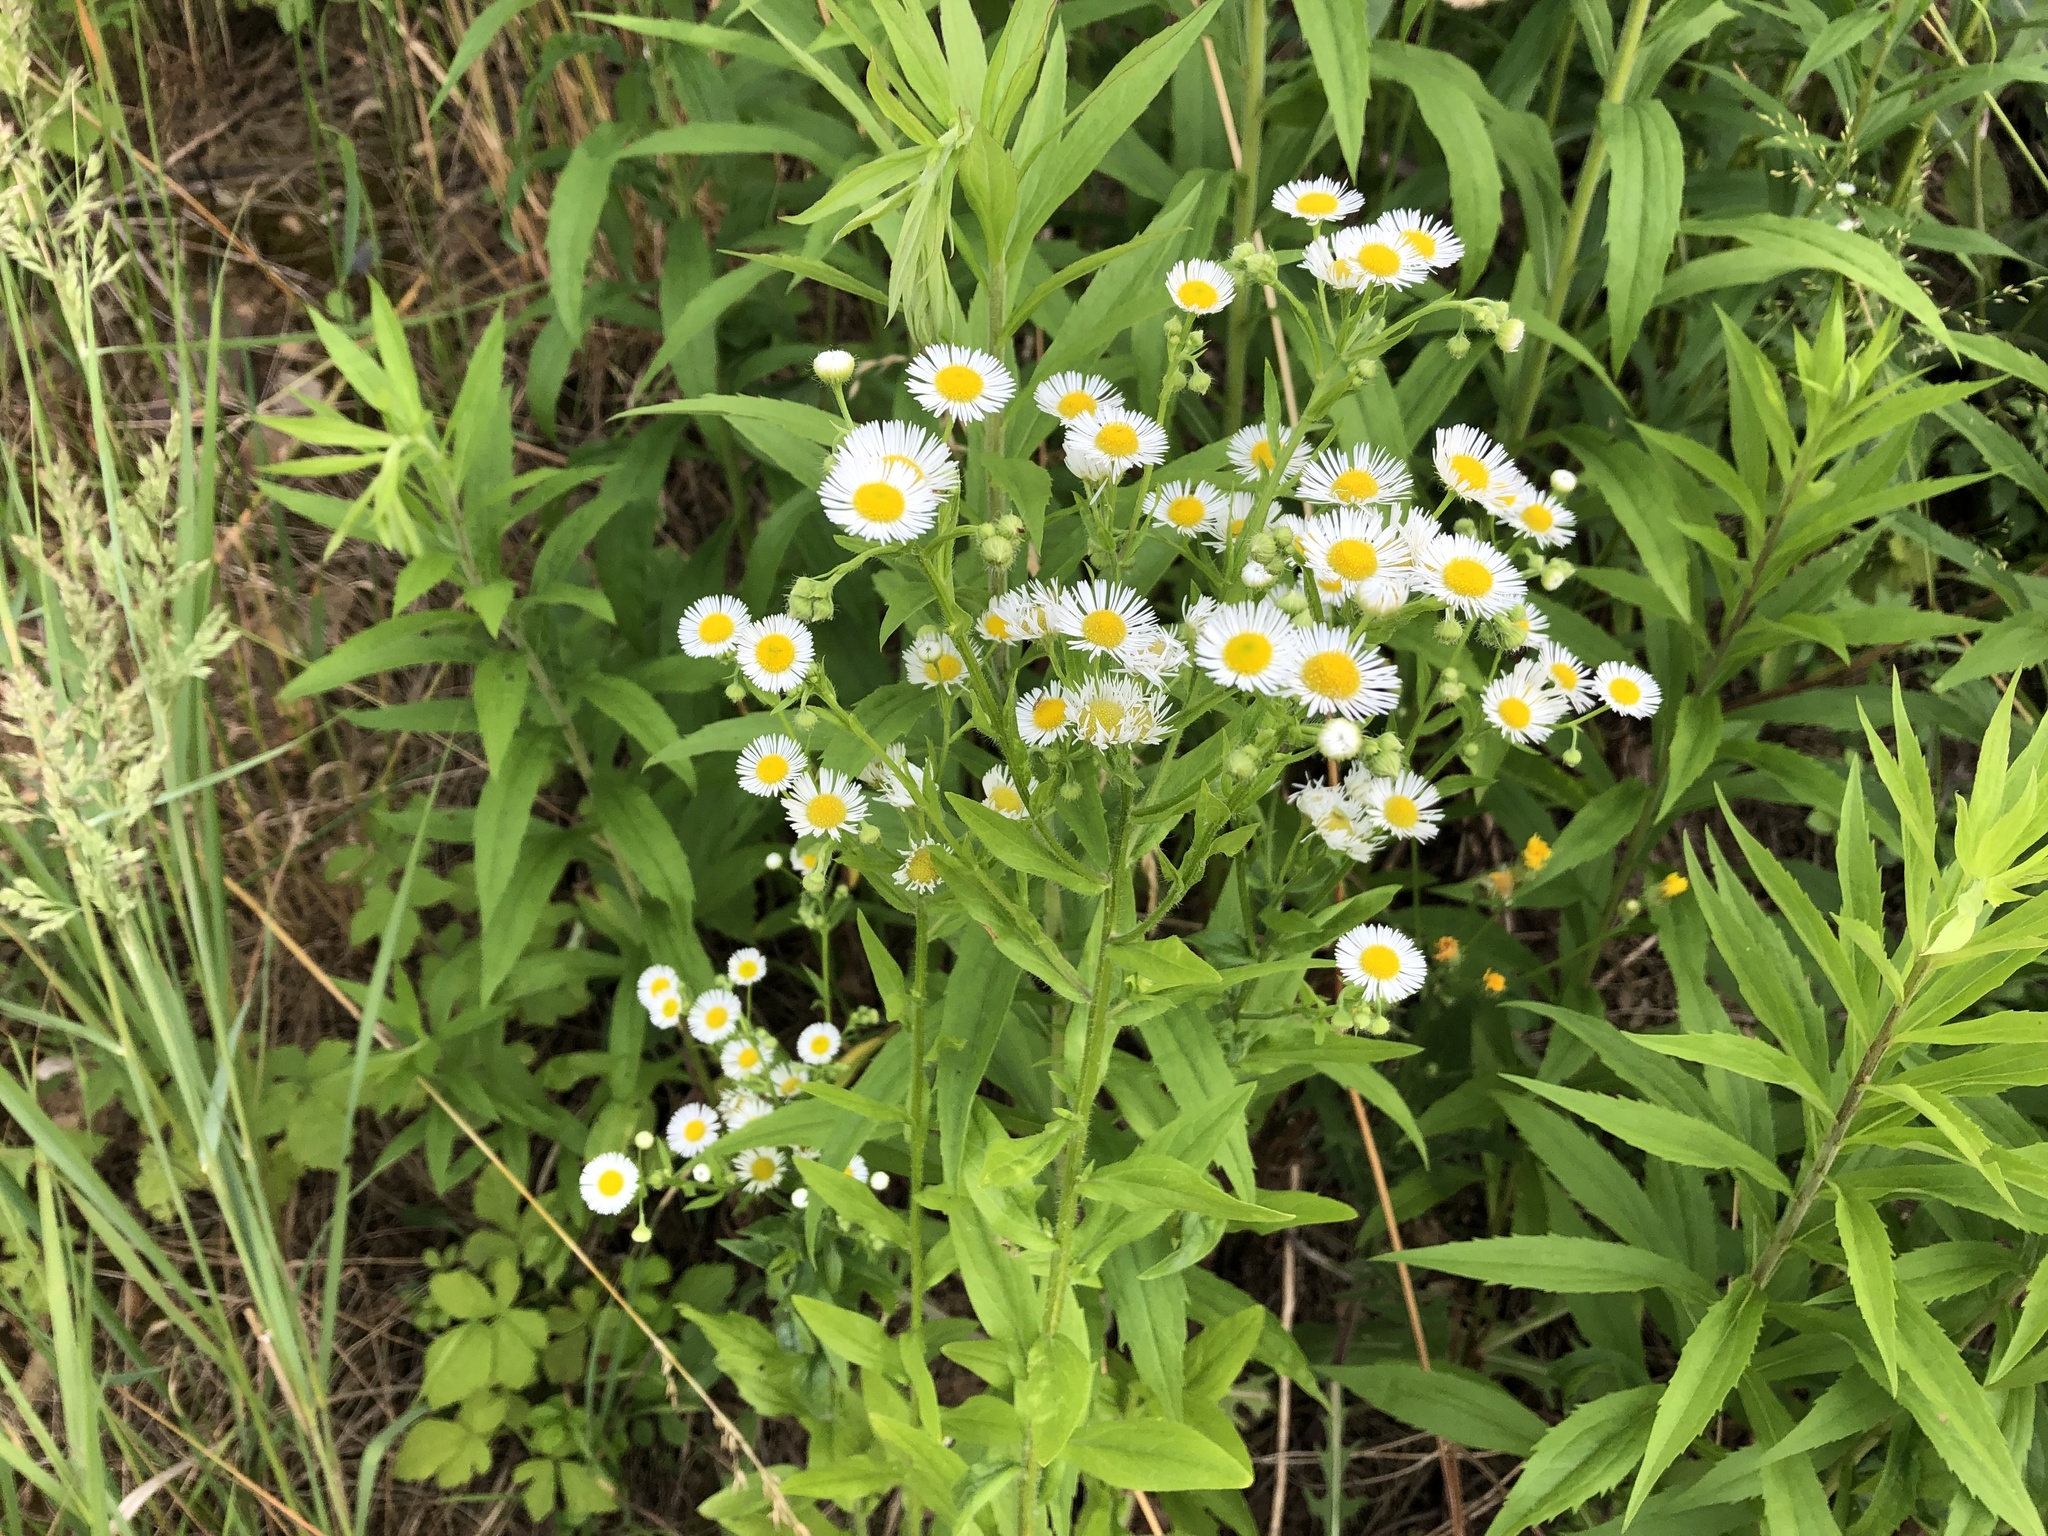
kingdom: Plantae
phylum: Tracheophyta
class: Magnoliopsida
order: Asterales
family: Asteraceae
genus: Erigeron
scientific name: Erigeron annuus
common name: Tall fleabane
